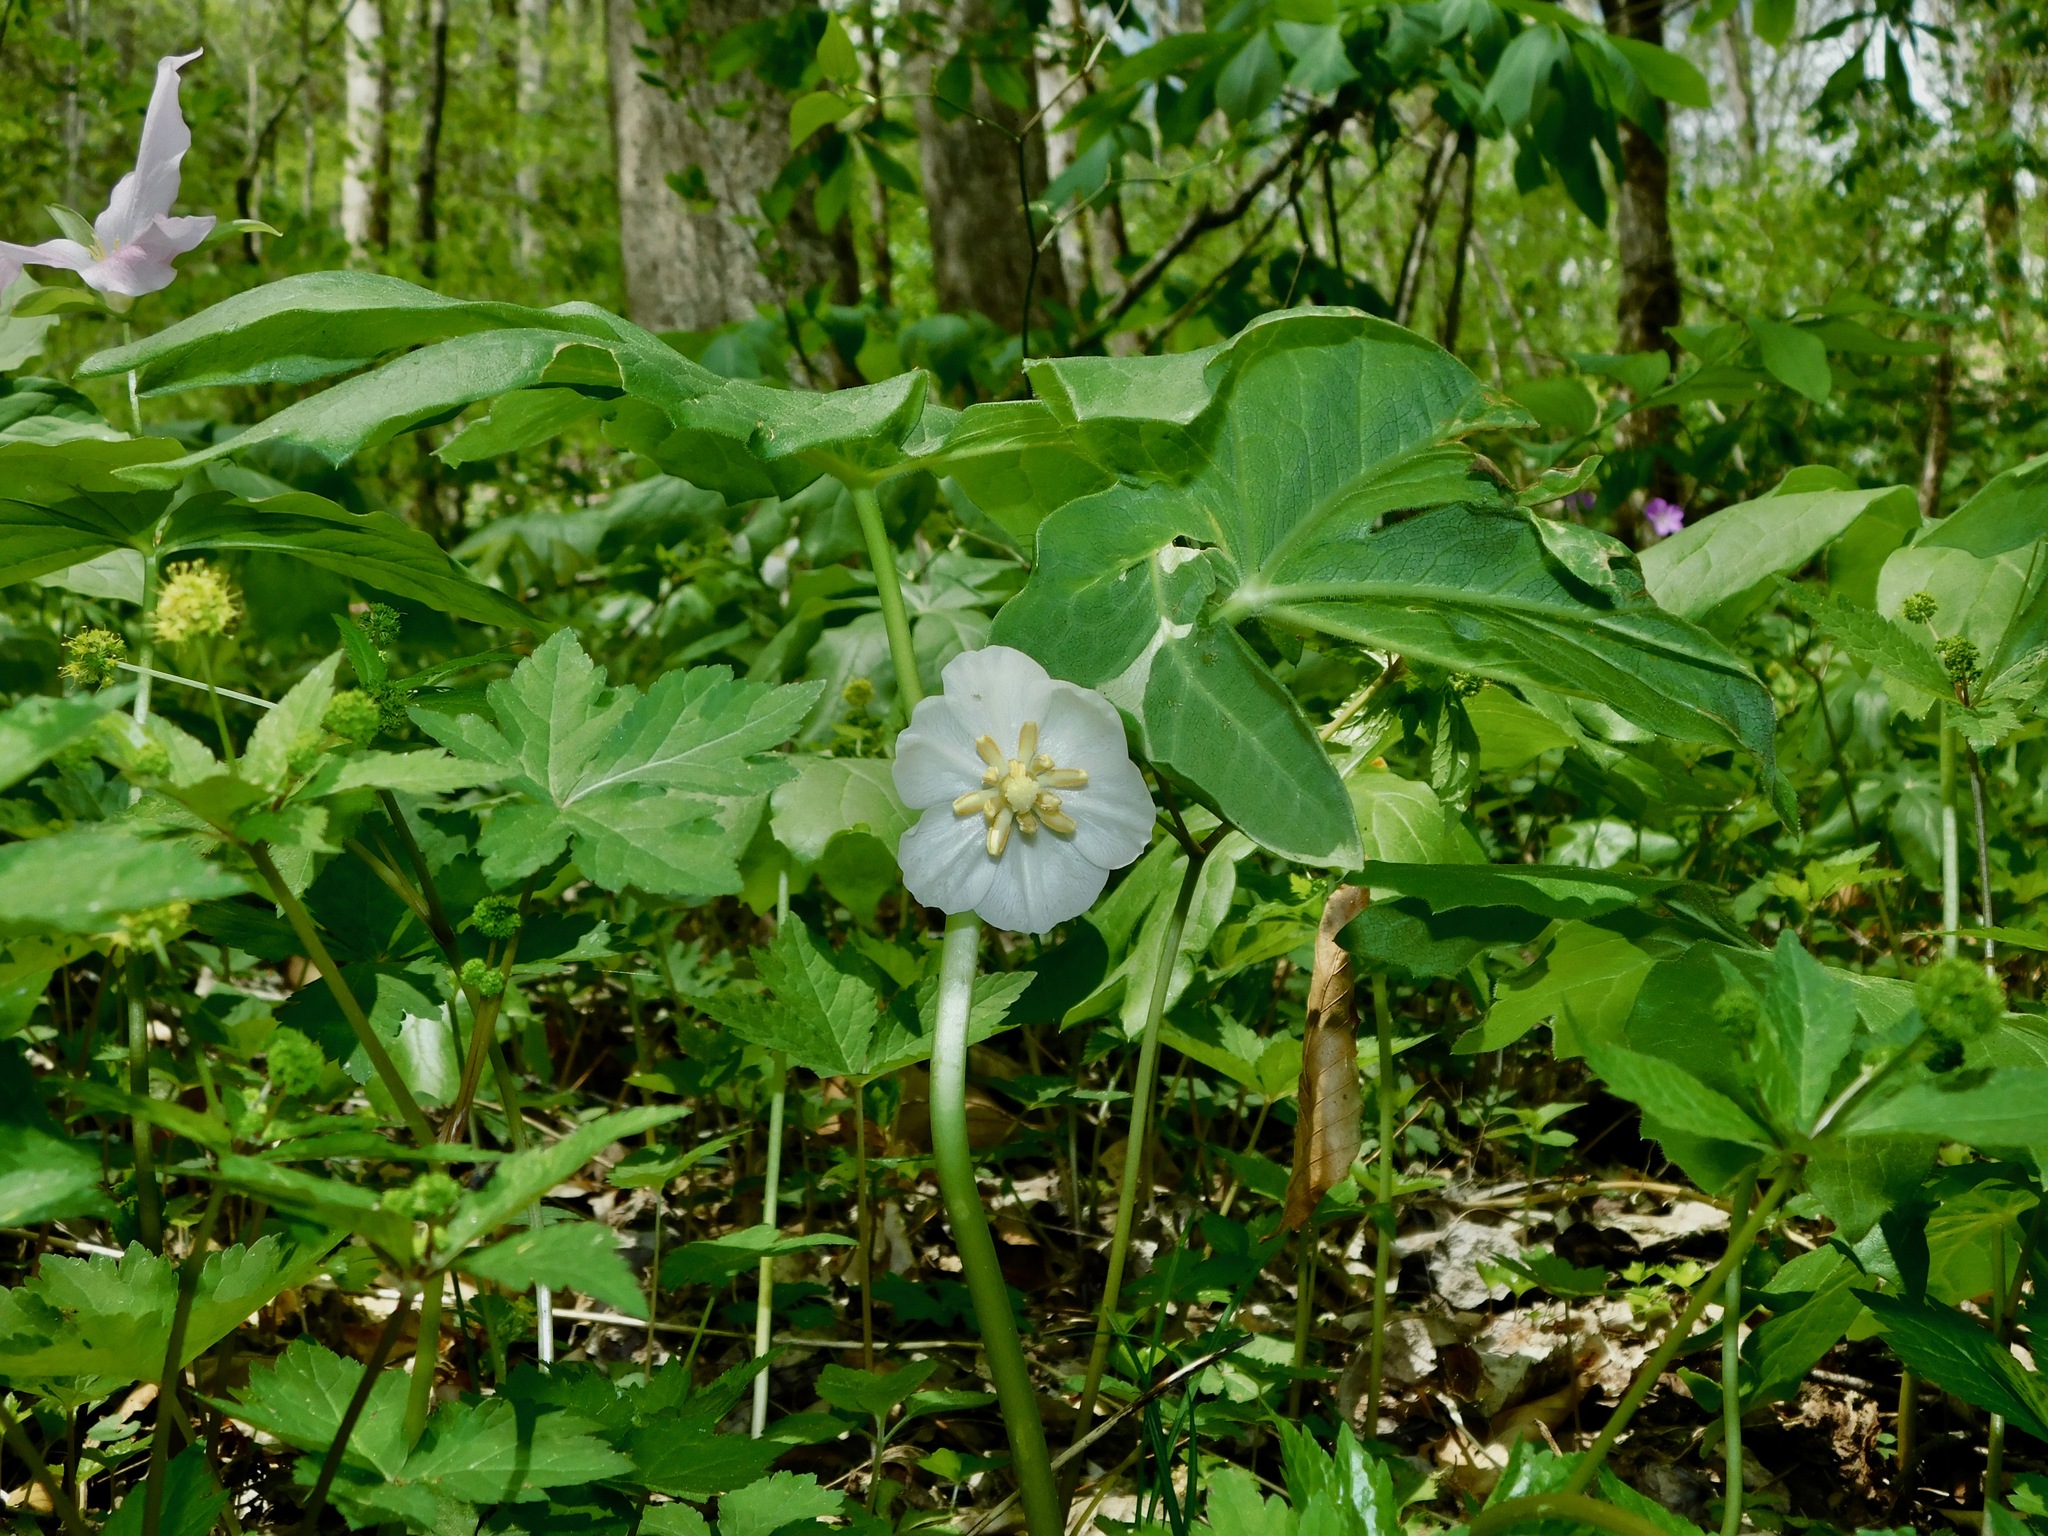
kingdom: Plantae
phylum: Tracheophyta
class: Magnoliopsida
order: Ranunculales
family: Berberidaceae
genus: Podophyllum
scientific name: Podophyllum peltatum
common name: Wild mandrake
